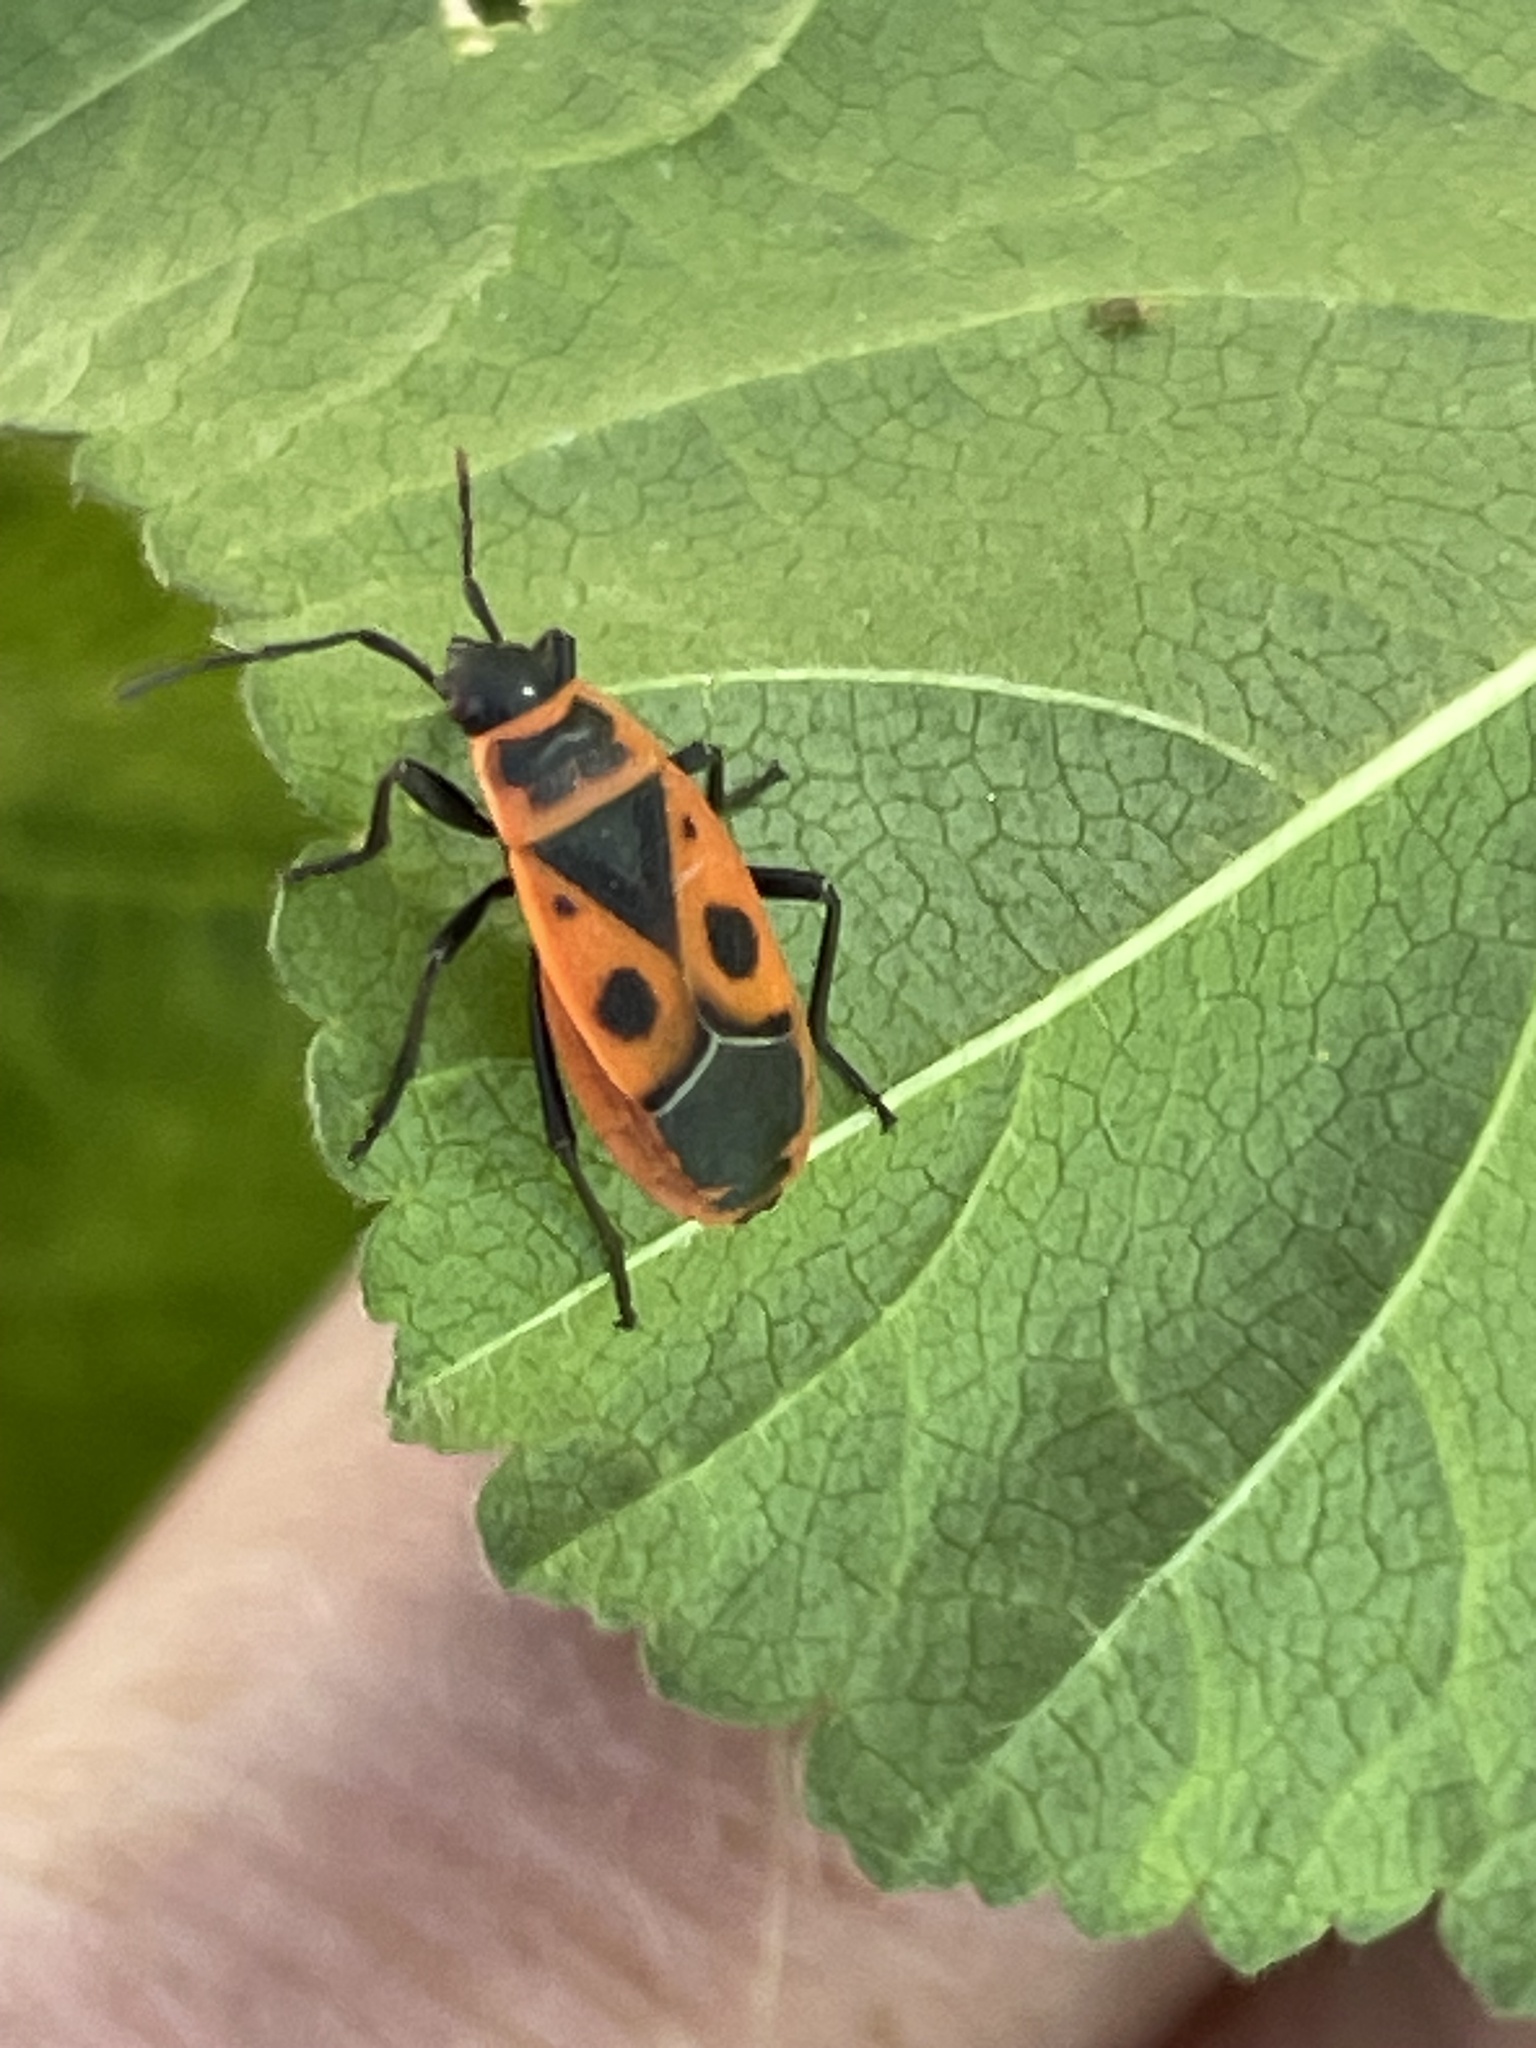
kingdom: Animalia
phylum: Arthropoda
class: Insecta
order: Hemiptera
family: Pyrrhocoridae
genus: Pyrrhocoris
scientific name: Pyrrhocoris apterus
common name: Firebug
